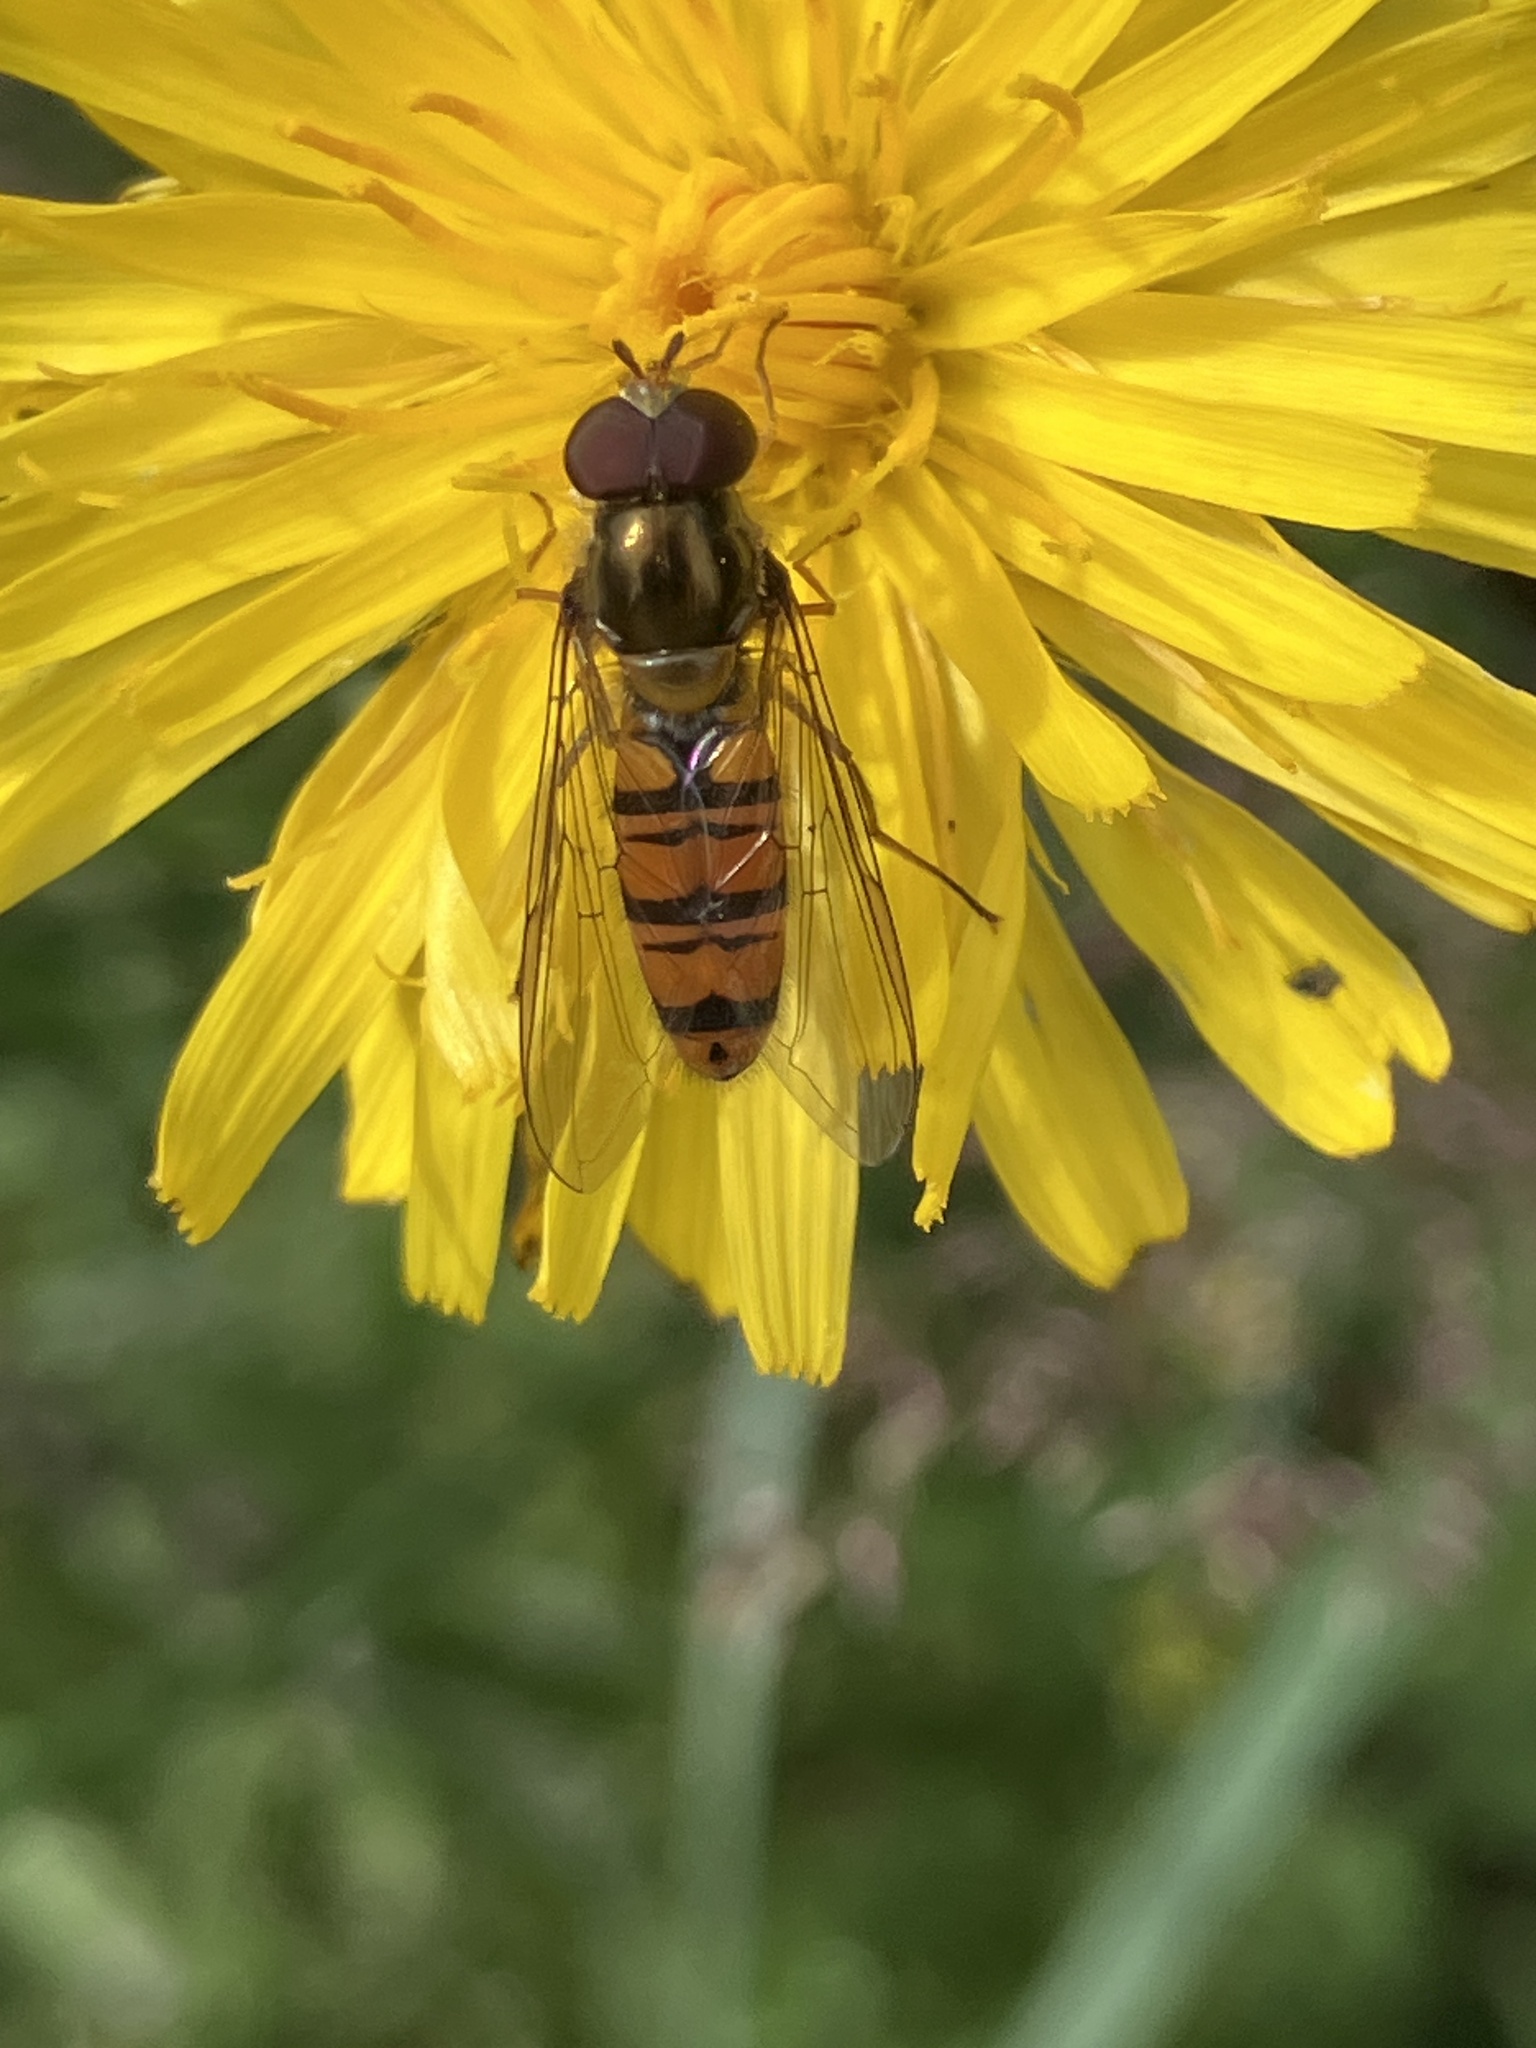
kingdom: Animalia
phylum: Arthropoda
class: Insecta
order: Diptera
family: Syrphidae
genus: Episyrphus
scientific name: Episyrphus balteatus
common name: Marmalade hoverfly
